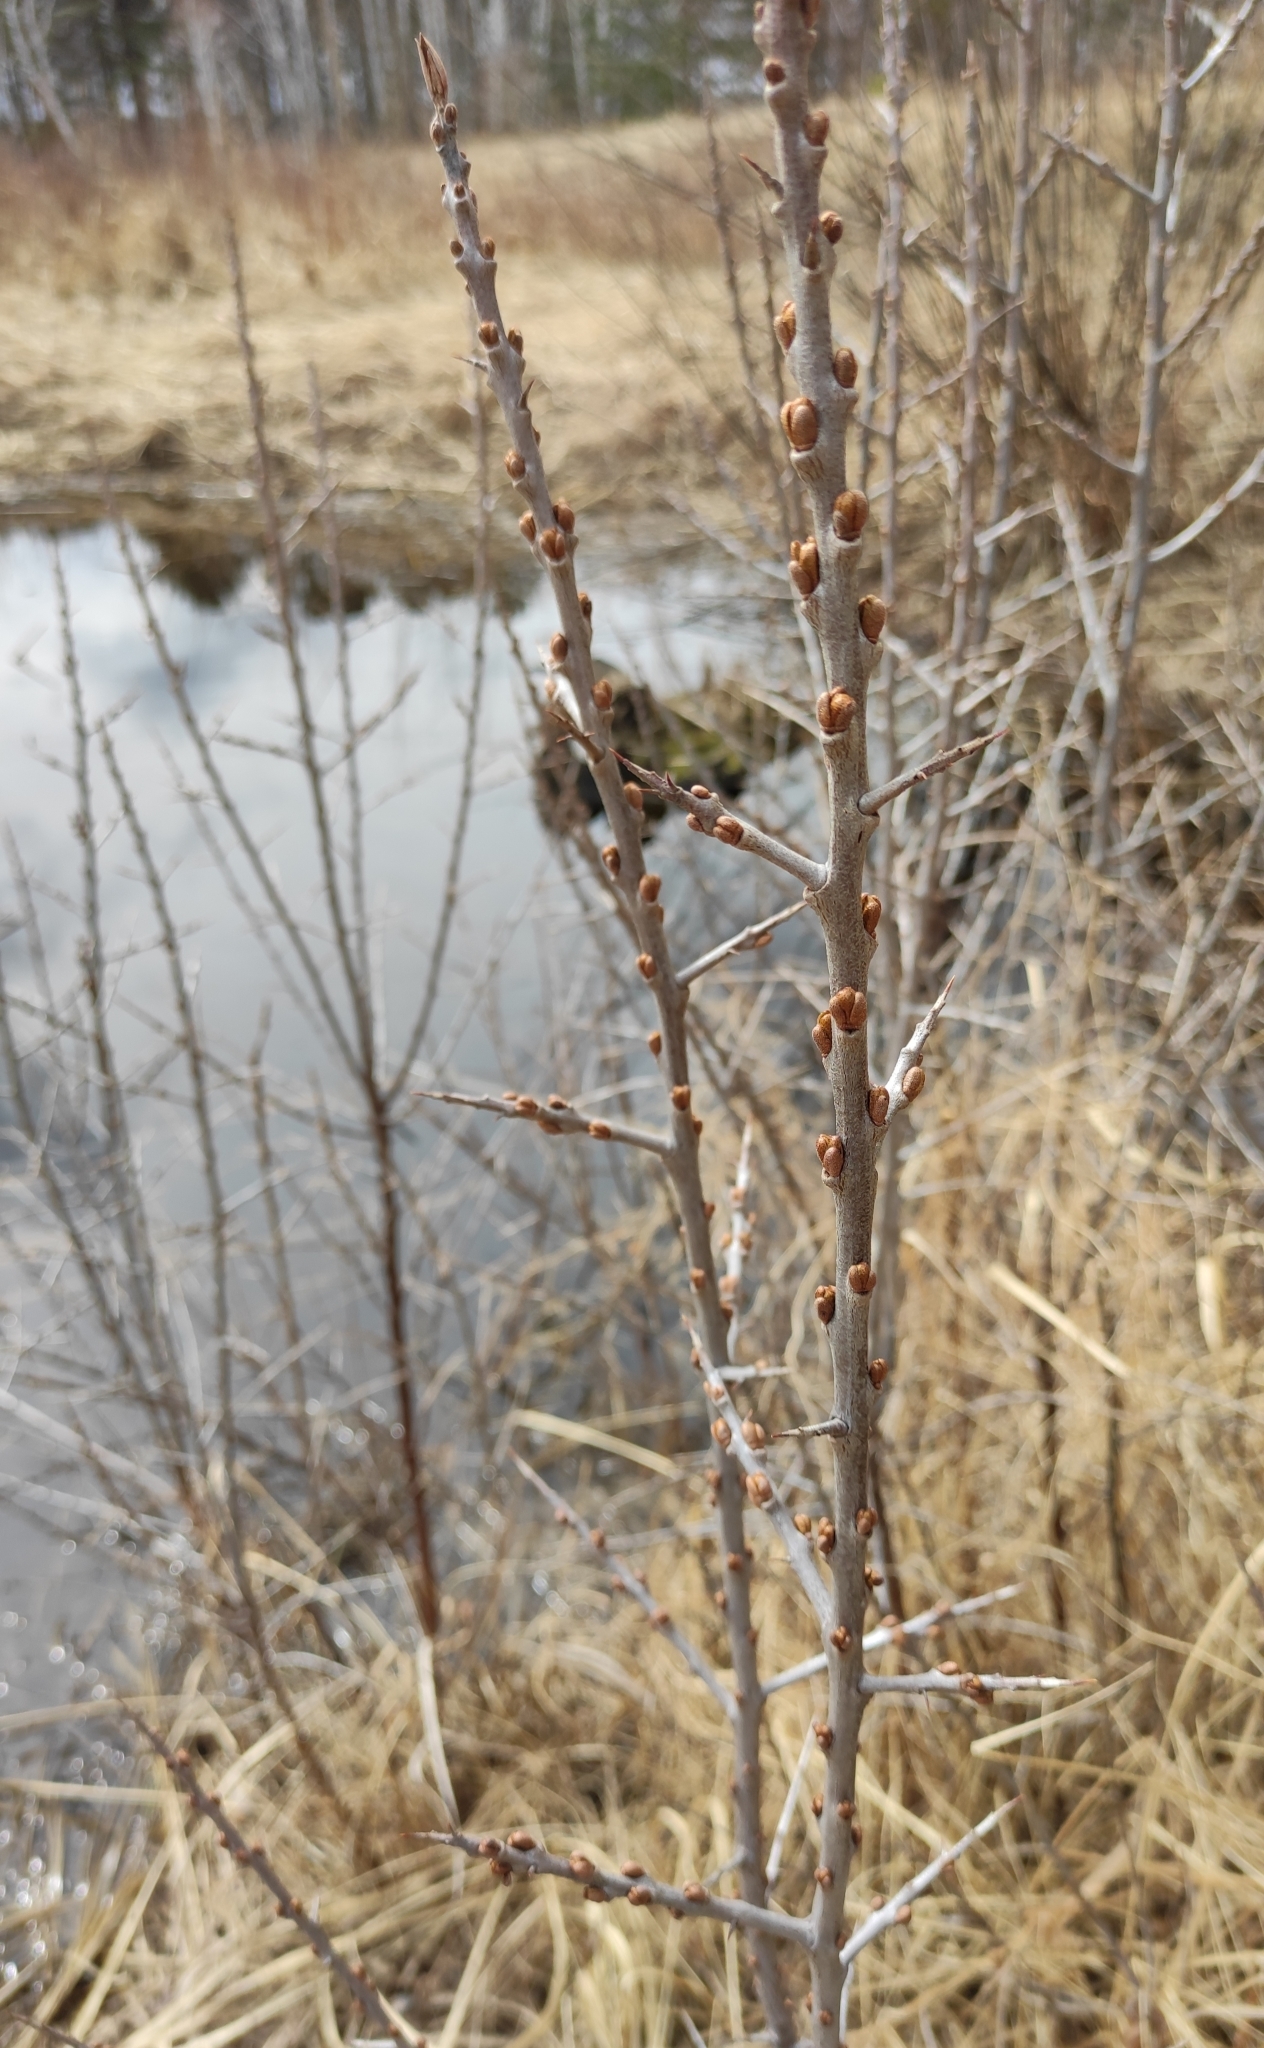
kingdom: Plantae
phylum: Tracheophyta
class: Magnoliopsida
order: Rosales
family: Elaeagnaceae
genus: Hippophae
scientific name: Hippophae rhamnoides
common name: Sea-buckthorn
